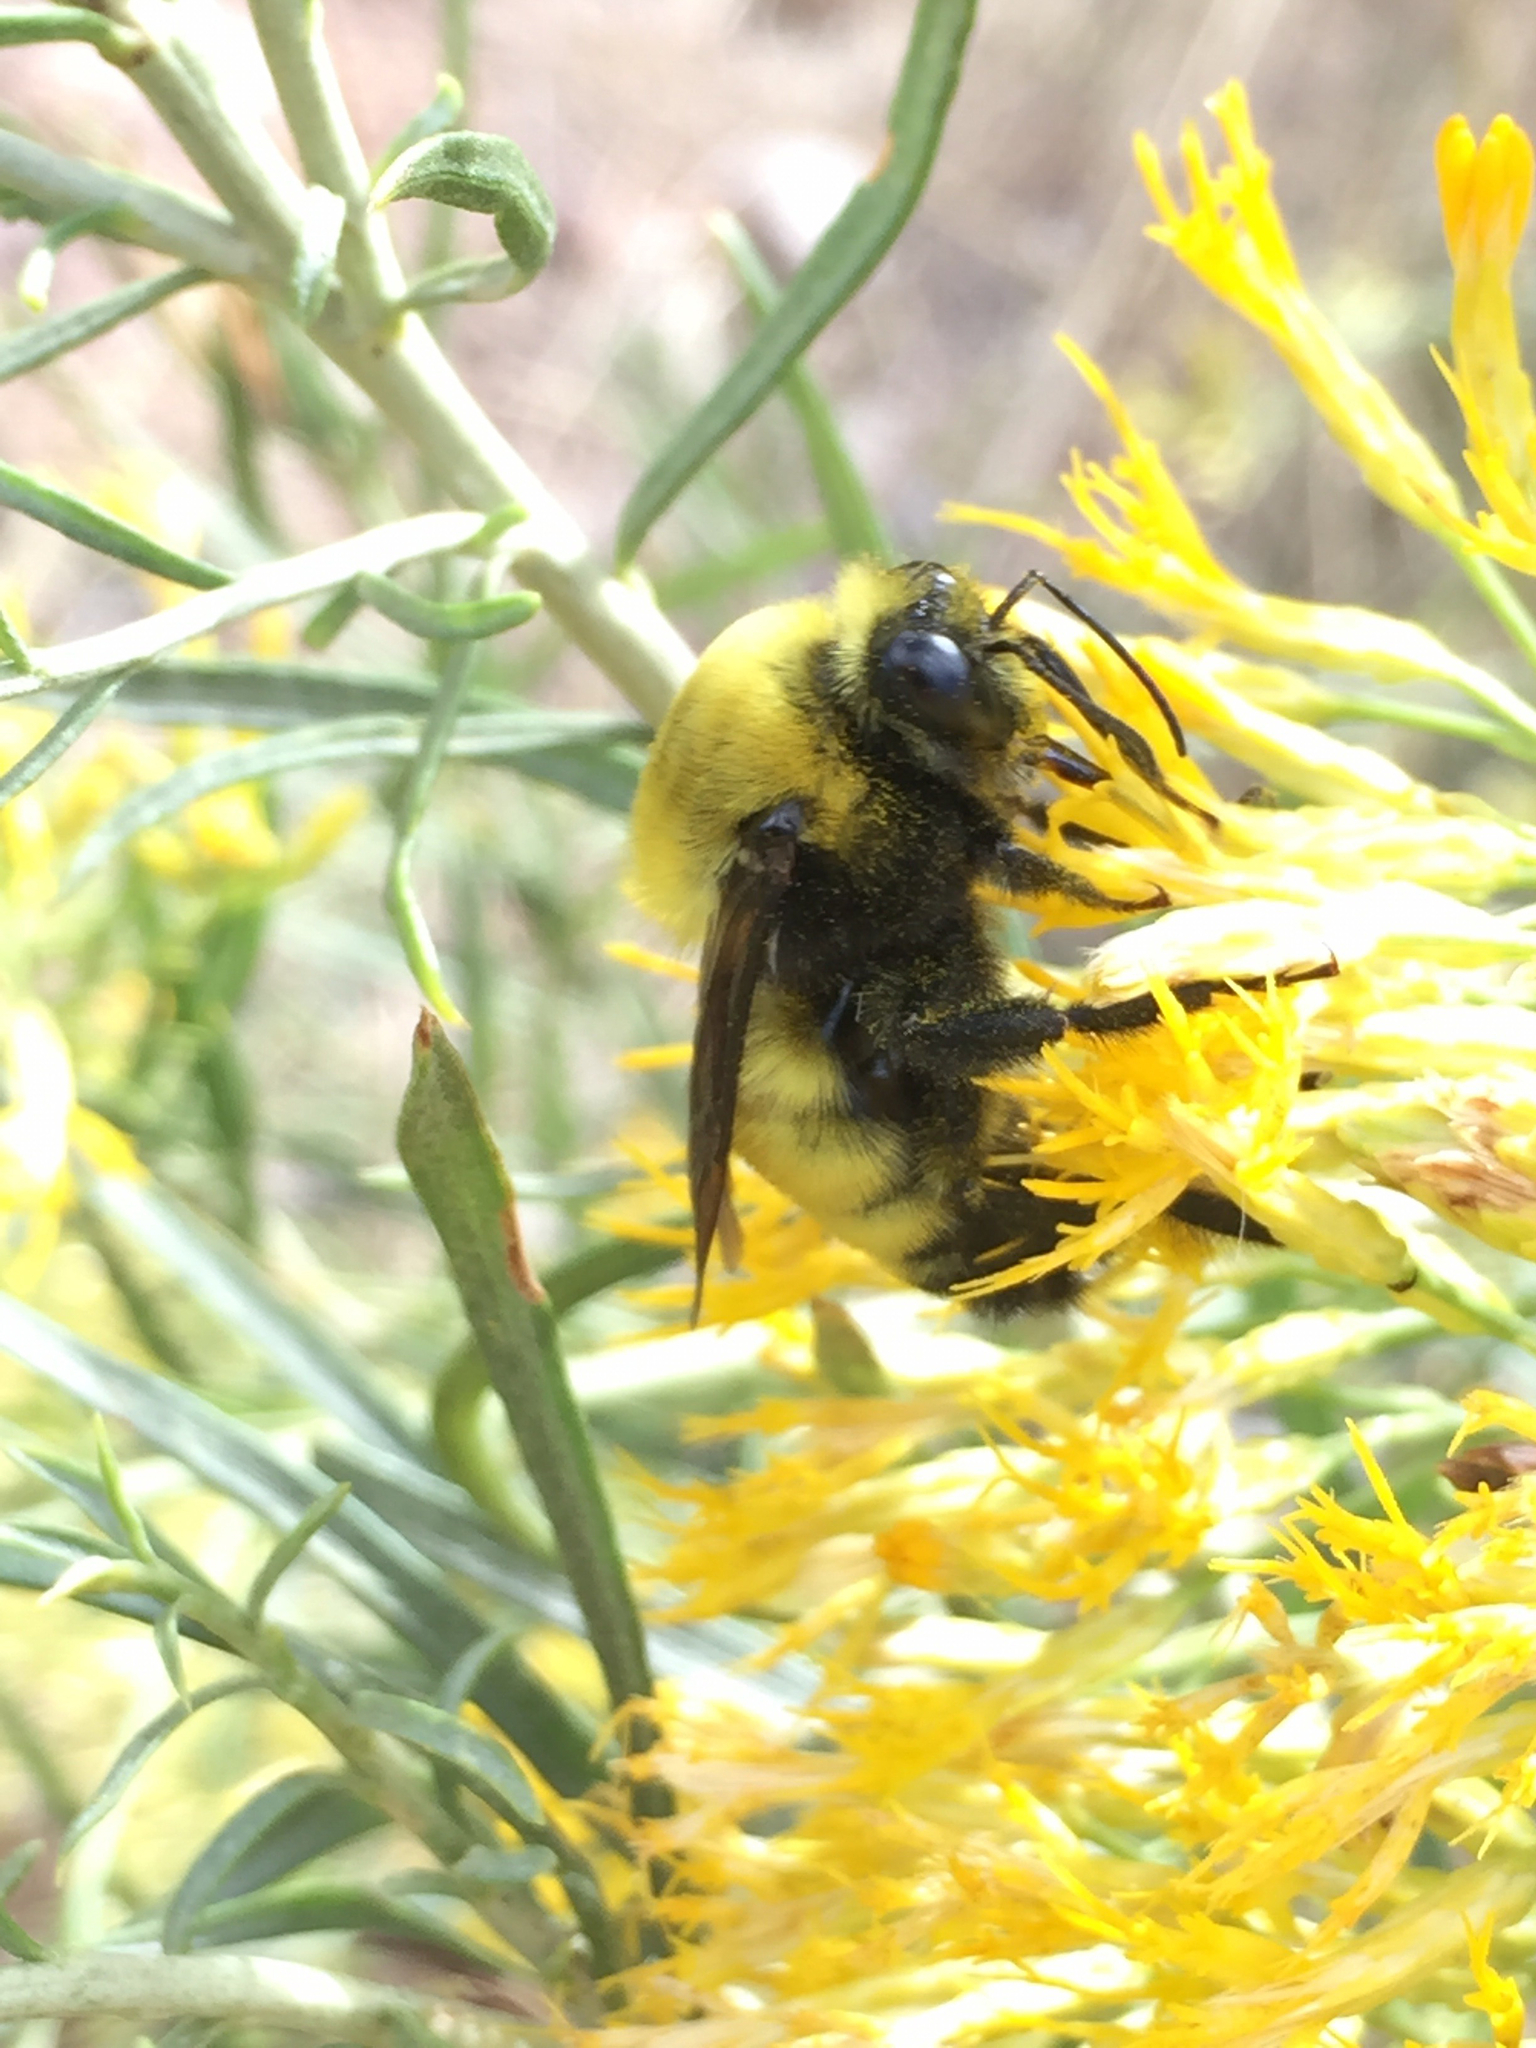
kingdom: Animalia
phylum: Arthropoda
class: Insecta
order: Hymenoptera
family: Apidae
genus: Bombus
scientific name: Bombus morrisoni
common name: Morrison bumble bee
